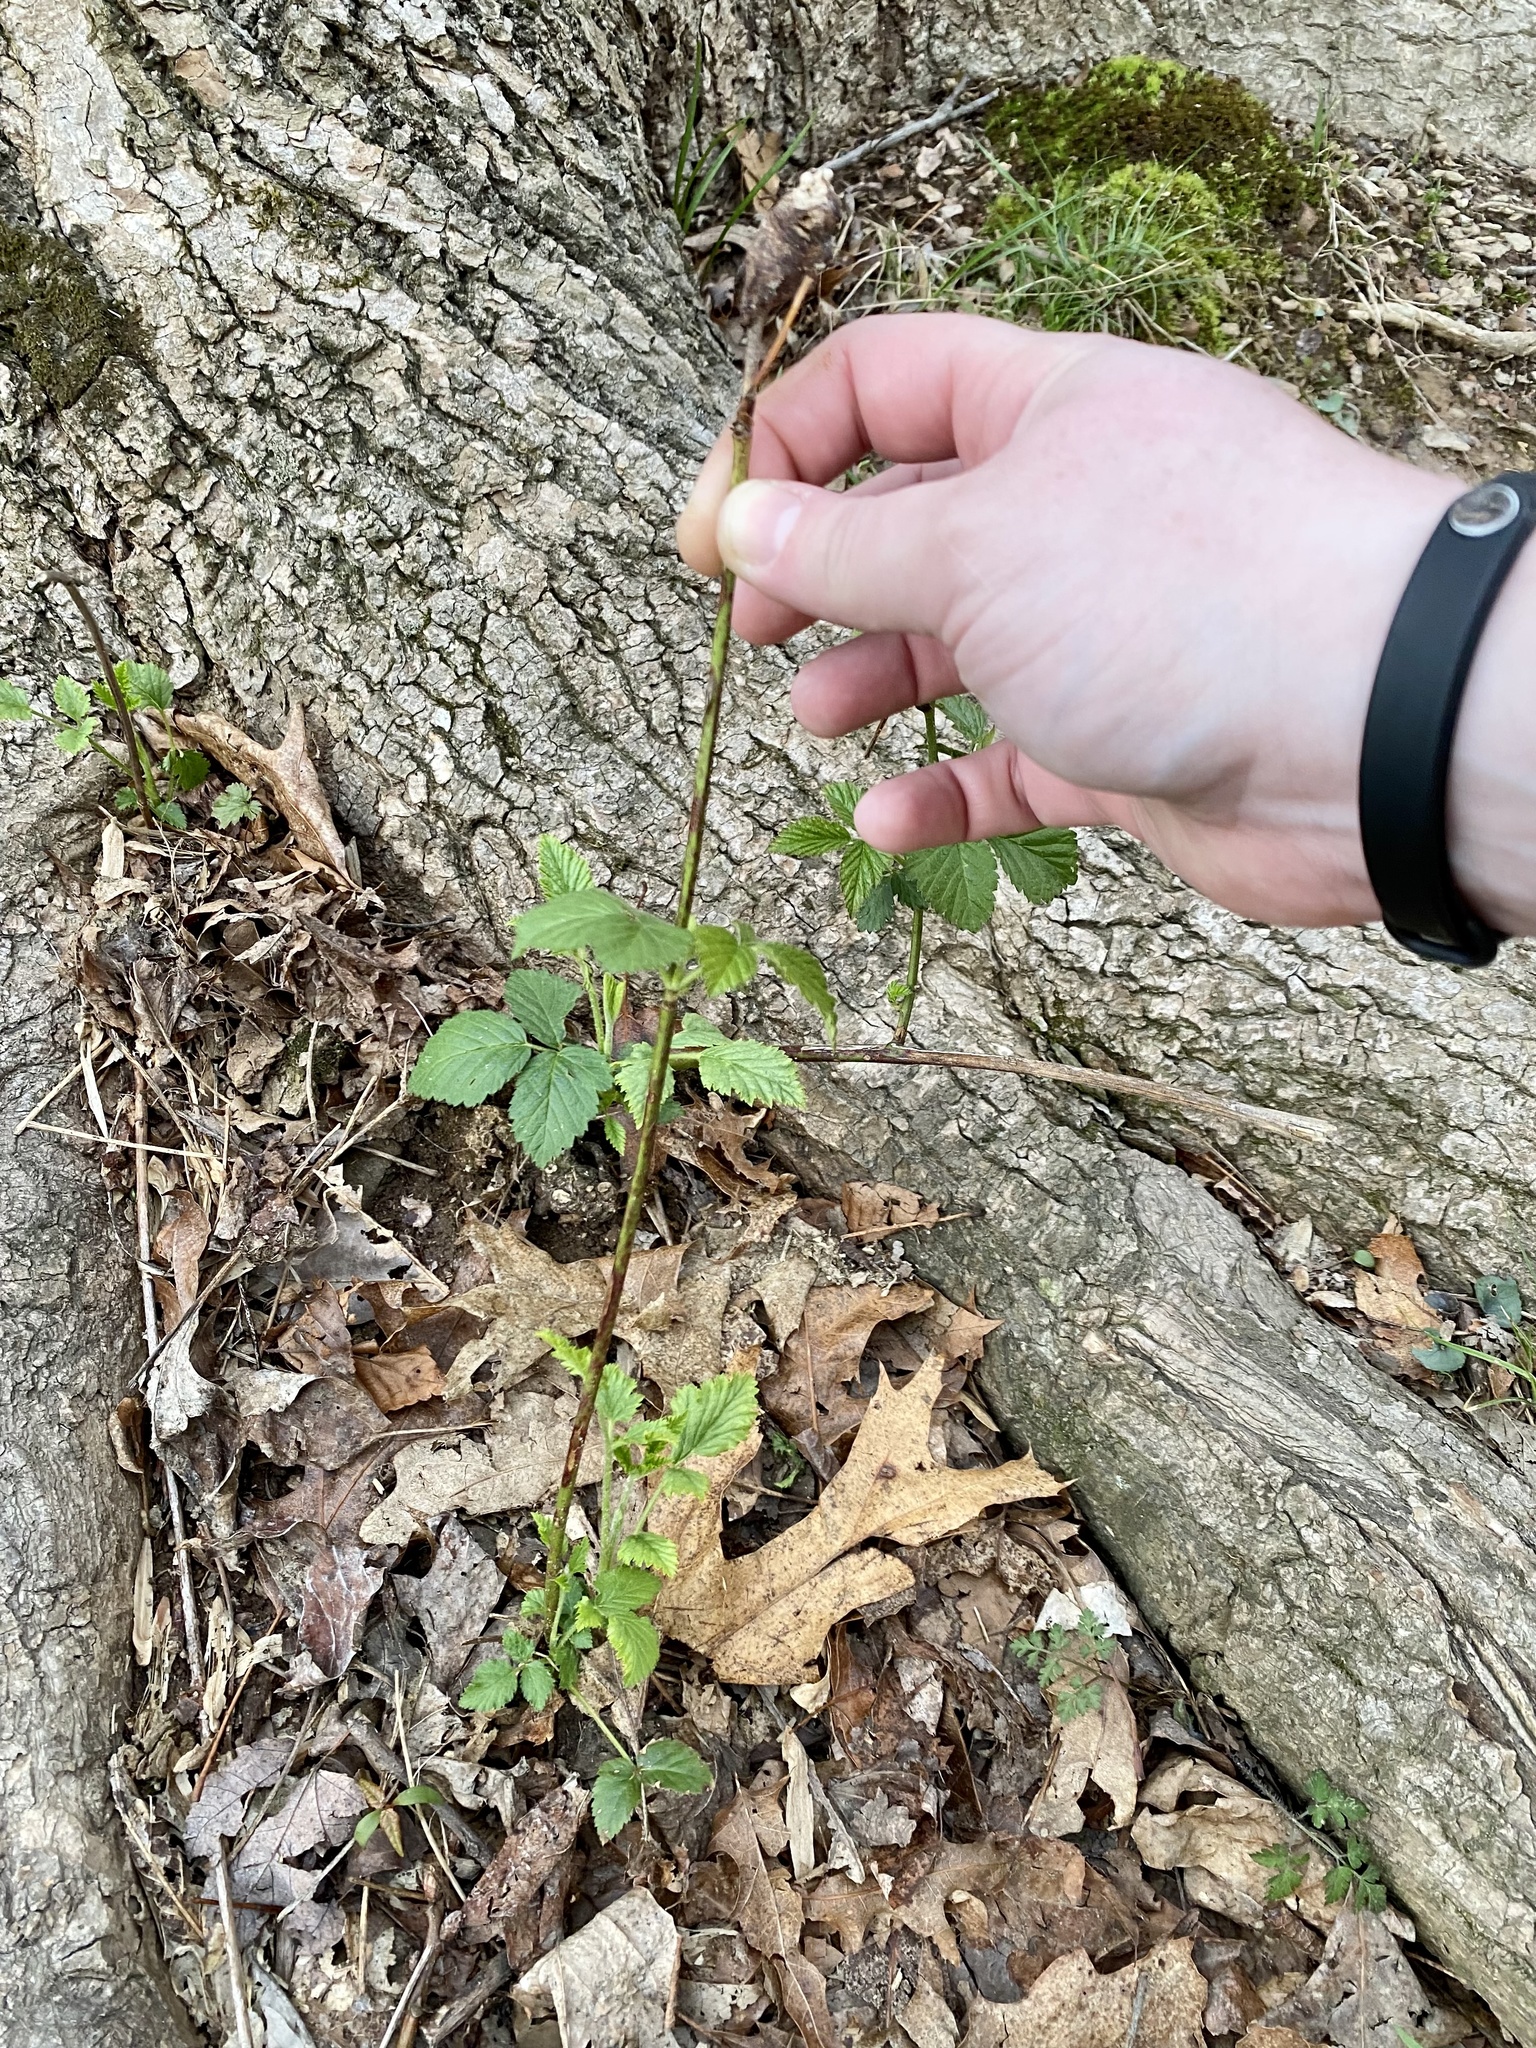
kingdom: Animalia
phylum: Arthropoda
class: Insecta
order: Hymenoptera
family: Cynipidae
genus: Diastrophus
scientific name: Diastrophus
